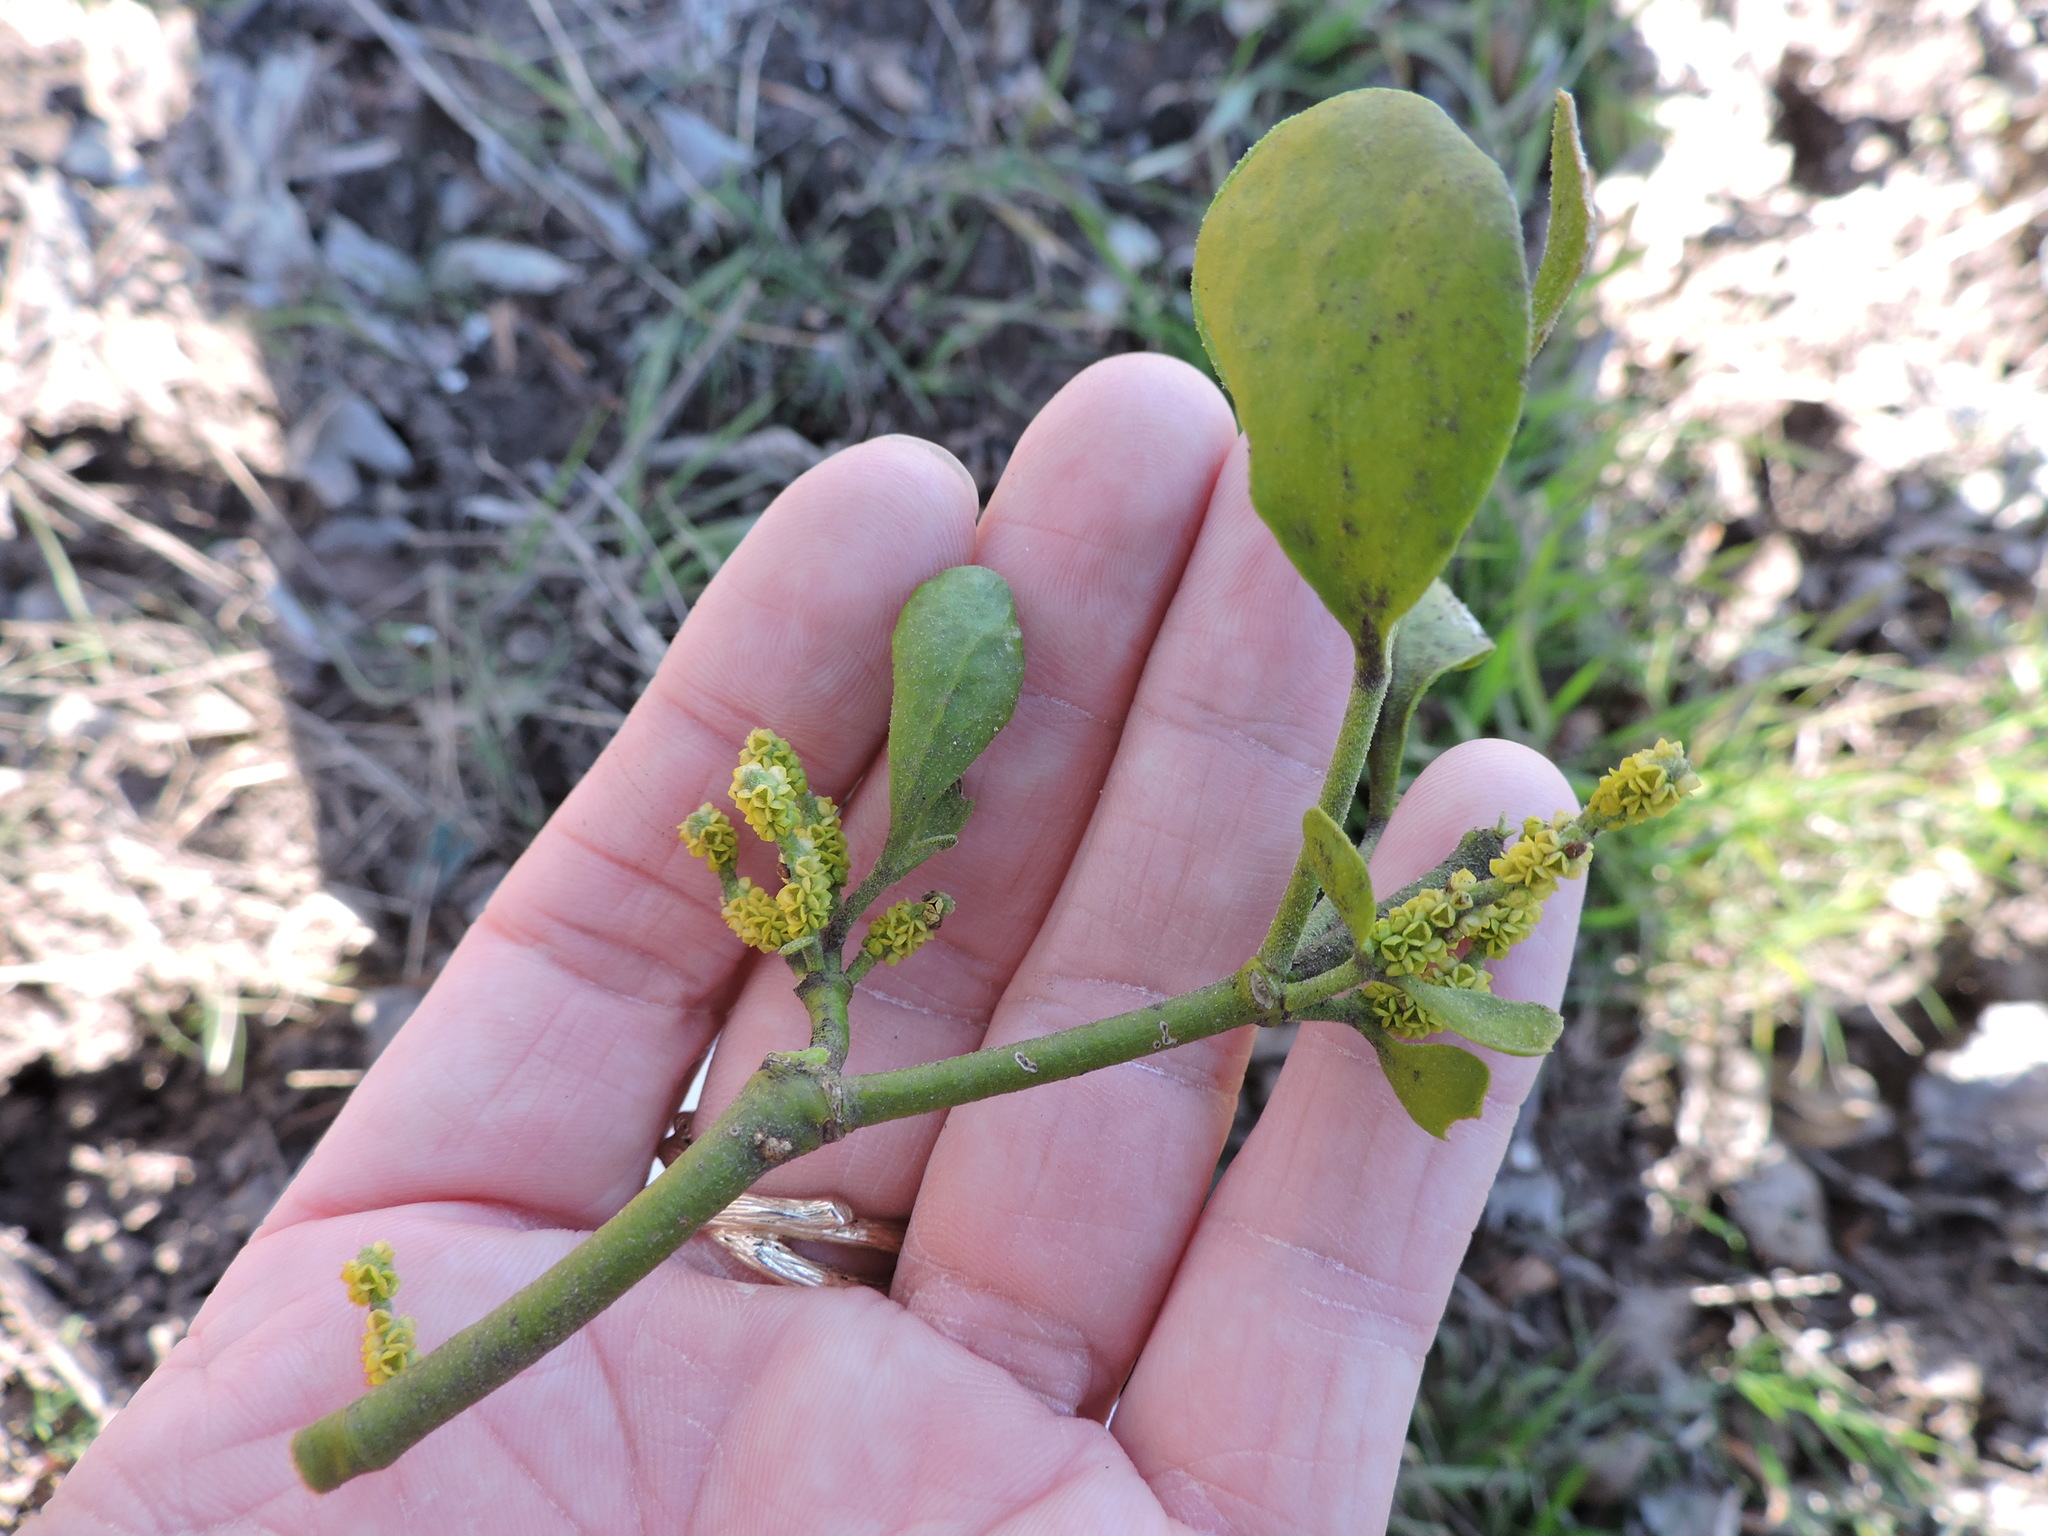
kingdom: Plantae
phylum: Tracheophyta
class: Magnoliopsida
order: Santalales
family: Viscaceae
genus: Phoradendron
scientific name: Phoradendron leucarpum
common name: Pacific mistletoe
